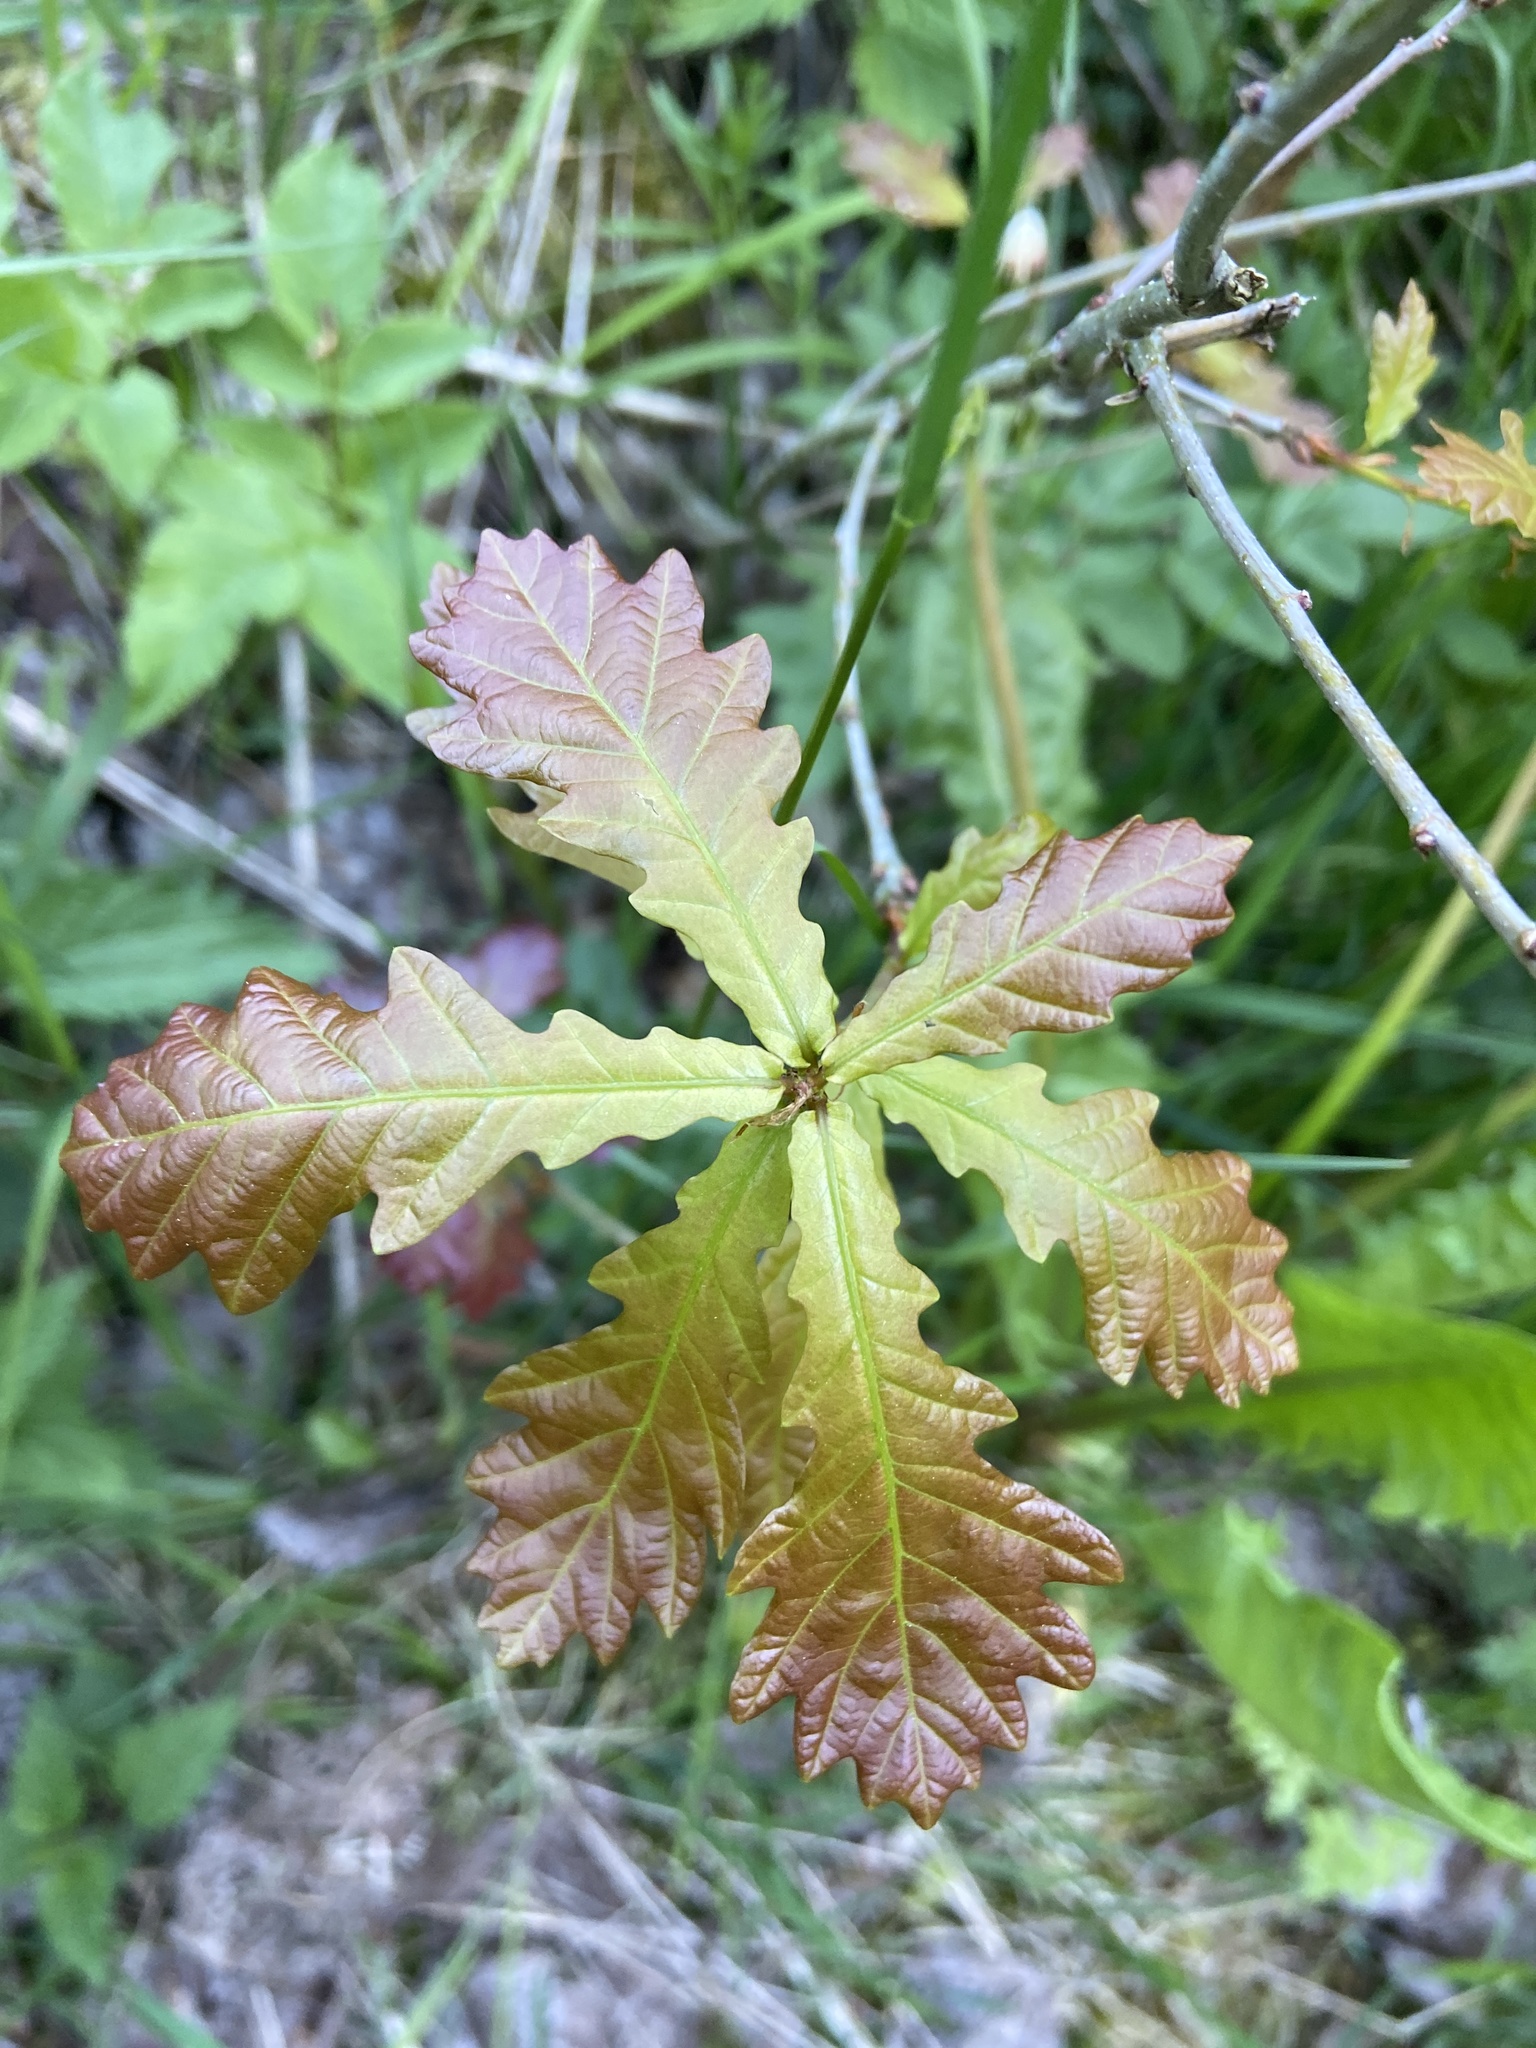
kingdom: Plantae
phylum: Tracheophyta
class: Magnoliopsida
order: Fagales
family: Fagaceae
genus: Quercus
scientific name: Quercus robur
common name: Pedunculate oak
